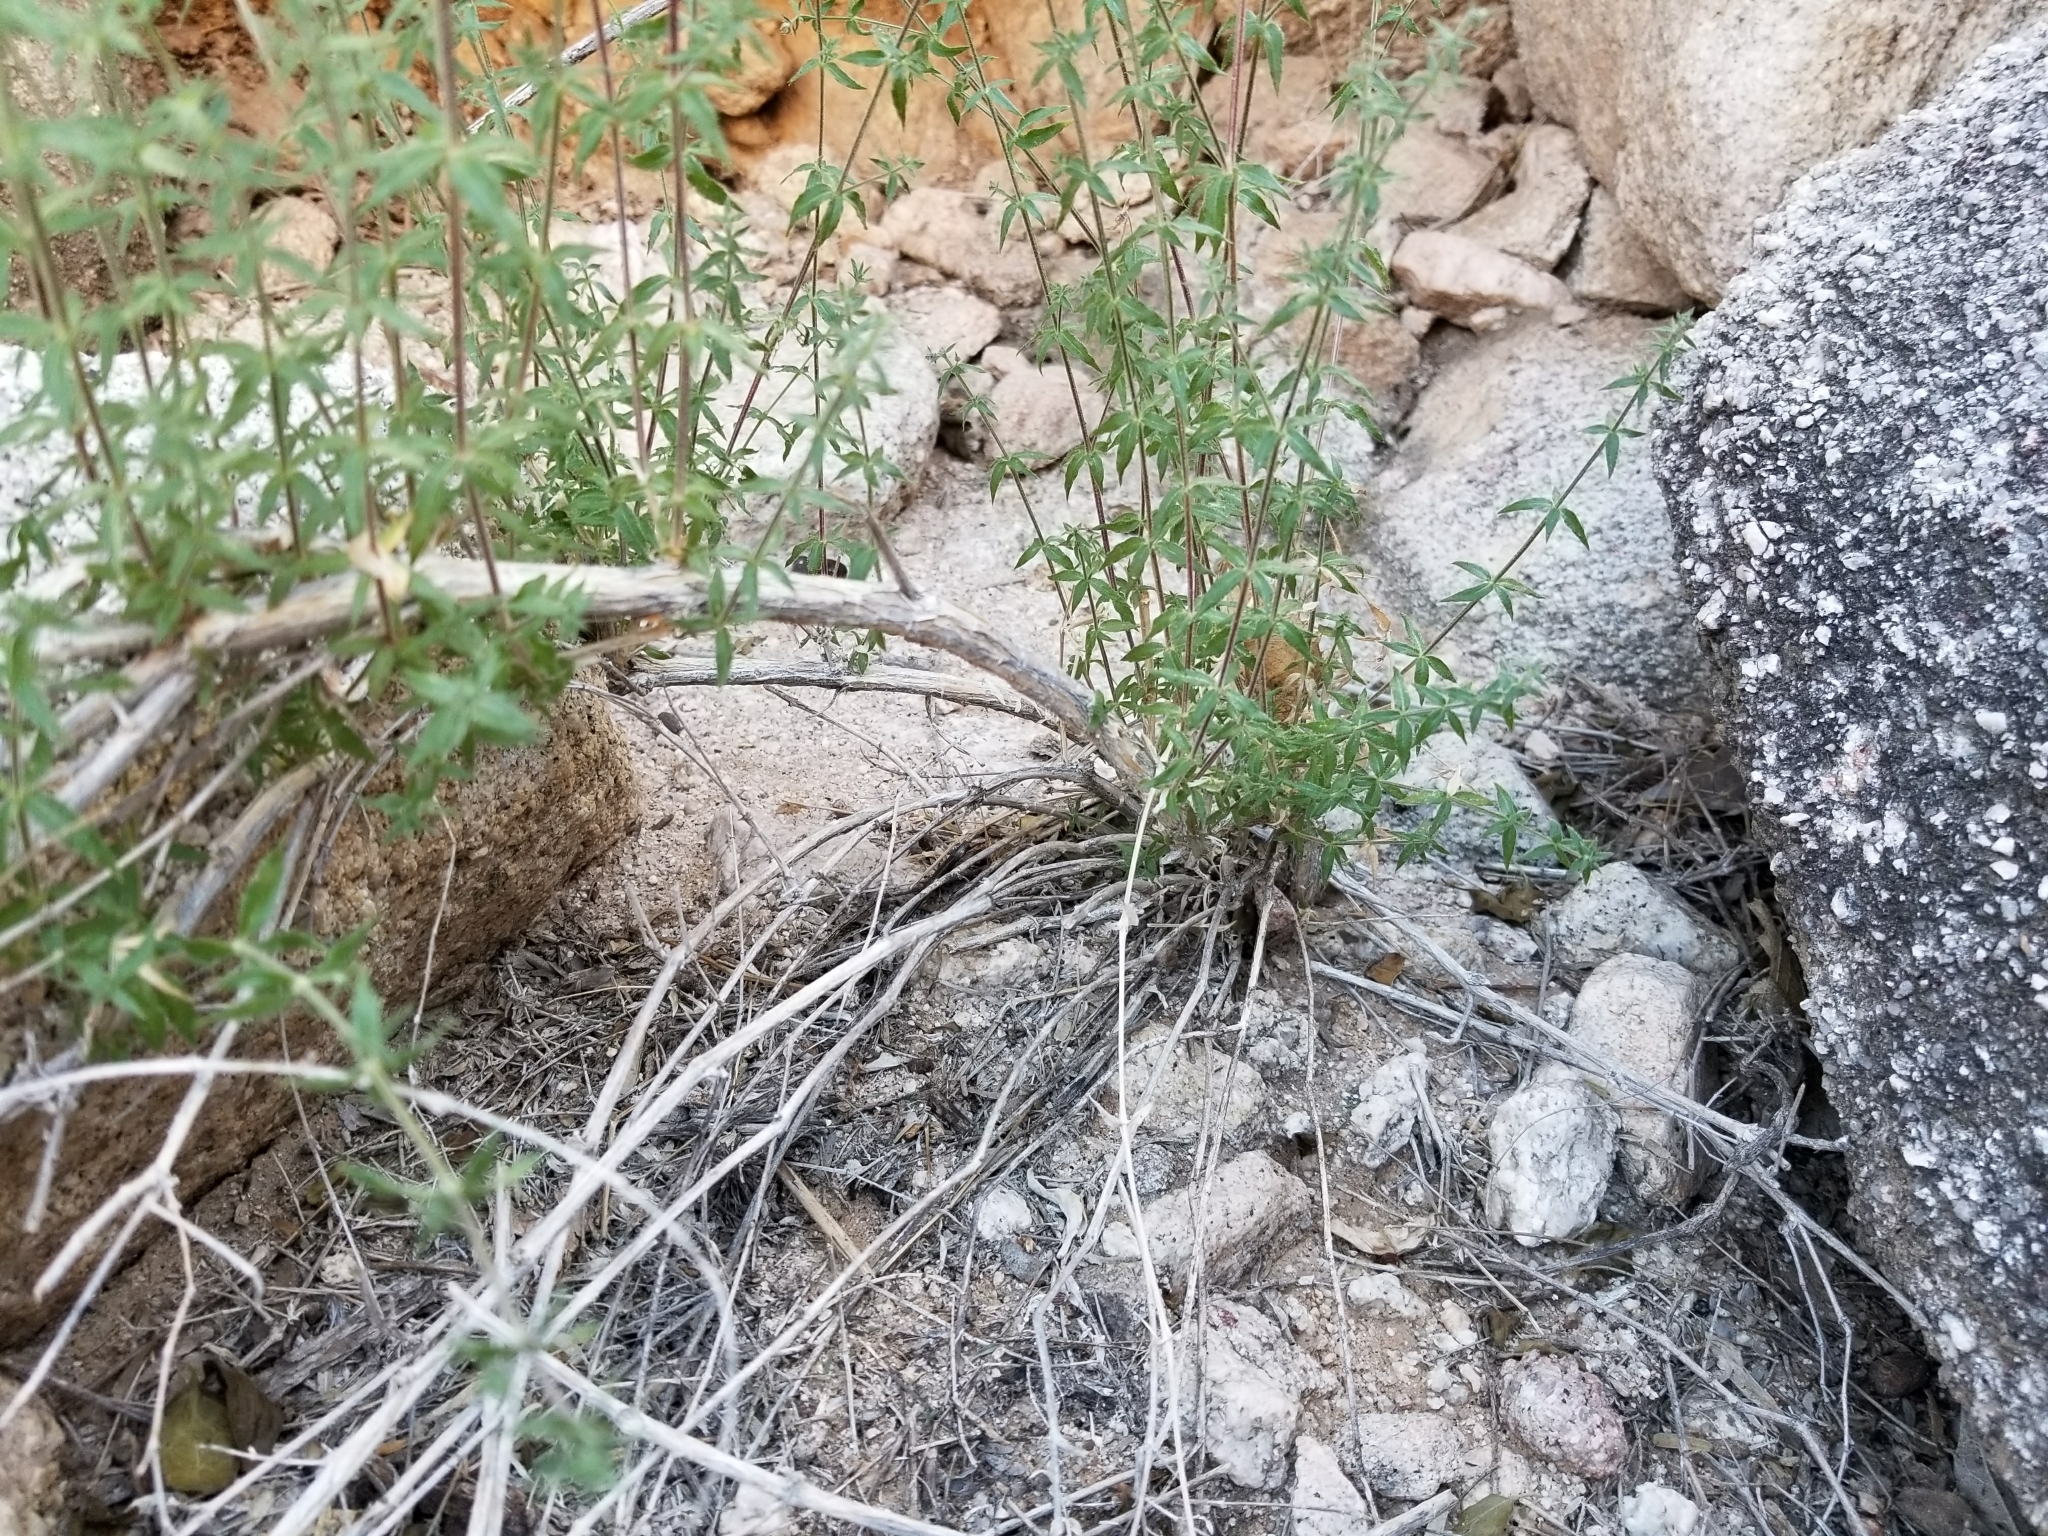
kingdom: Plantae
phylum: Tracheophyta
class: Magnoliopsida
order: Gentianales
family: Rubiaceae
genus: Galium
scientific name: Galium stellatum
